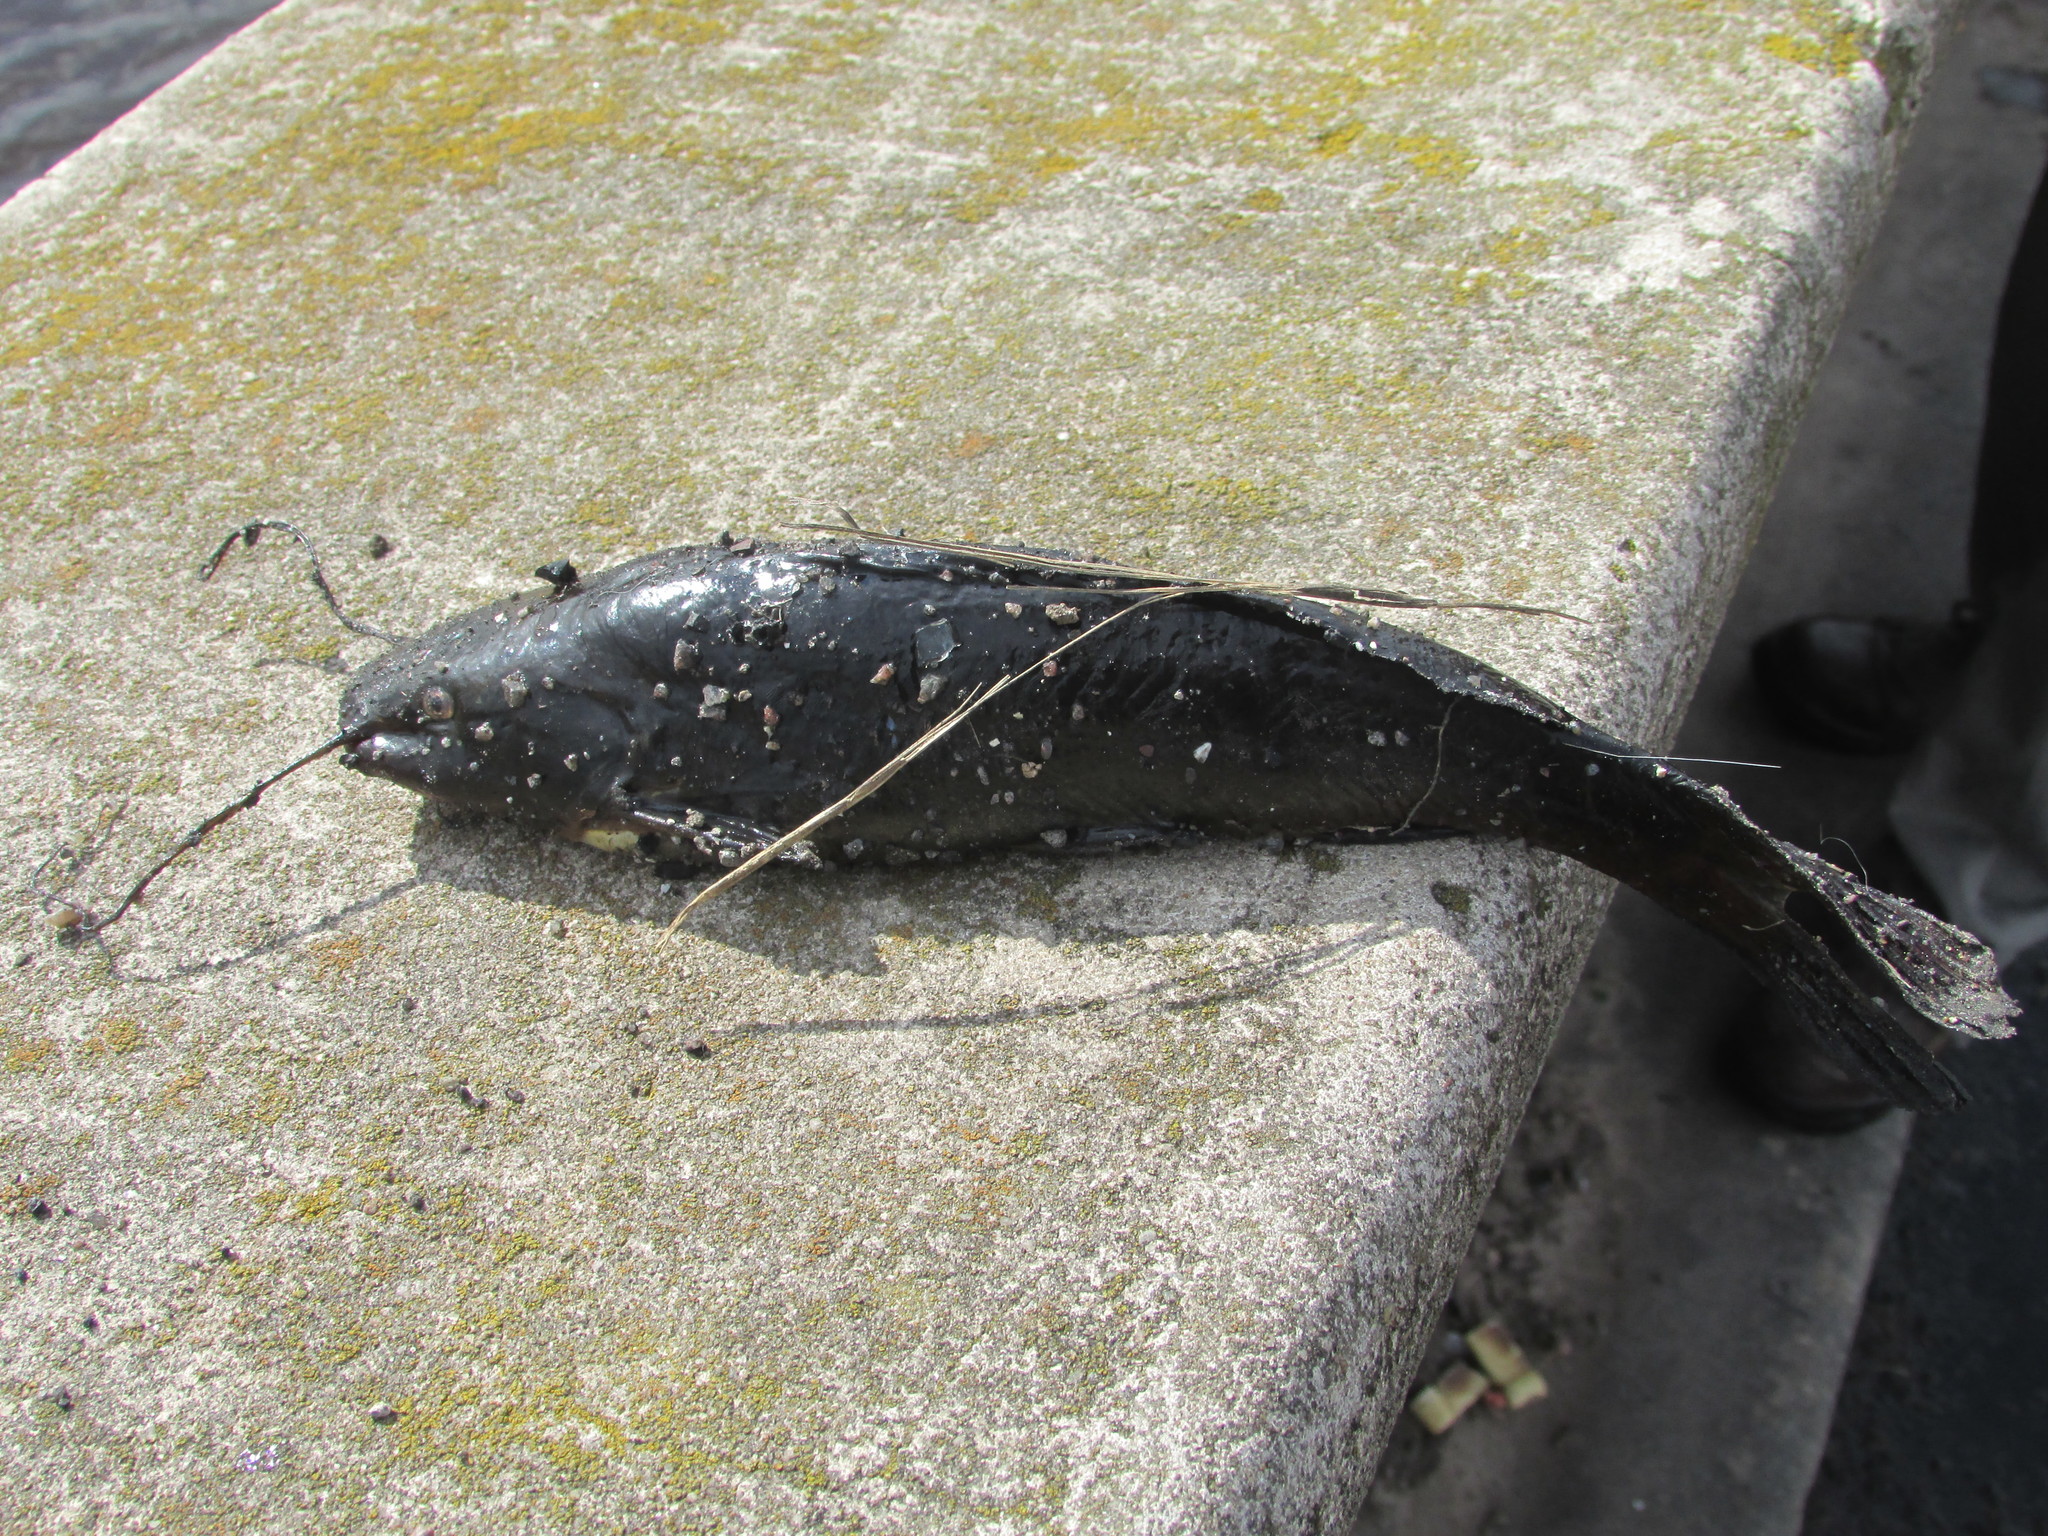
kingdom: Animalia
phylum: Chordata
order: Siluriformes
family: Heptapteridae
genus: Rhamdia
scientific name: Rhamdia quelen
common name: Catfish
